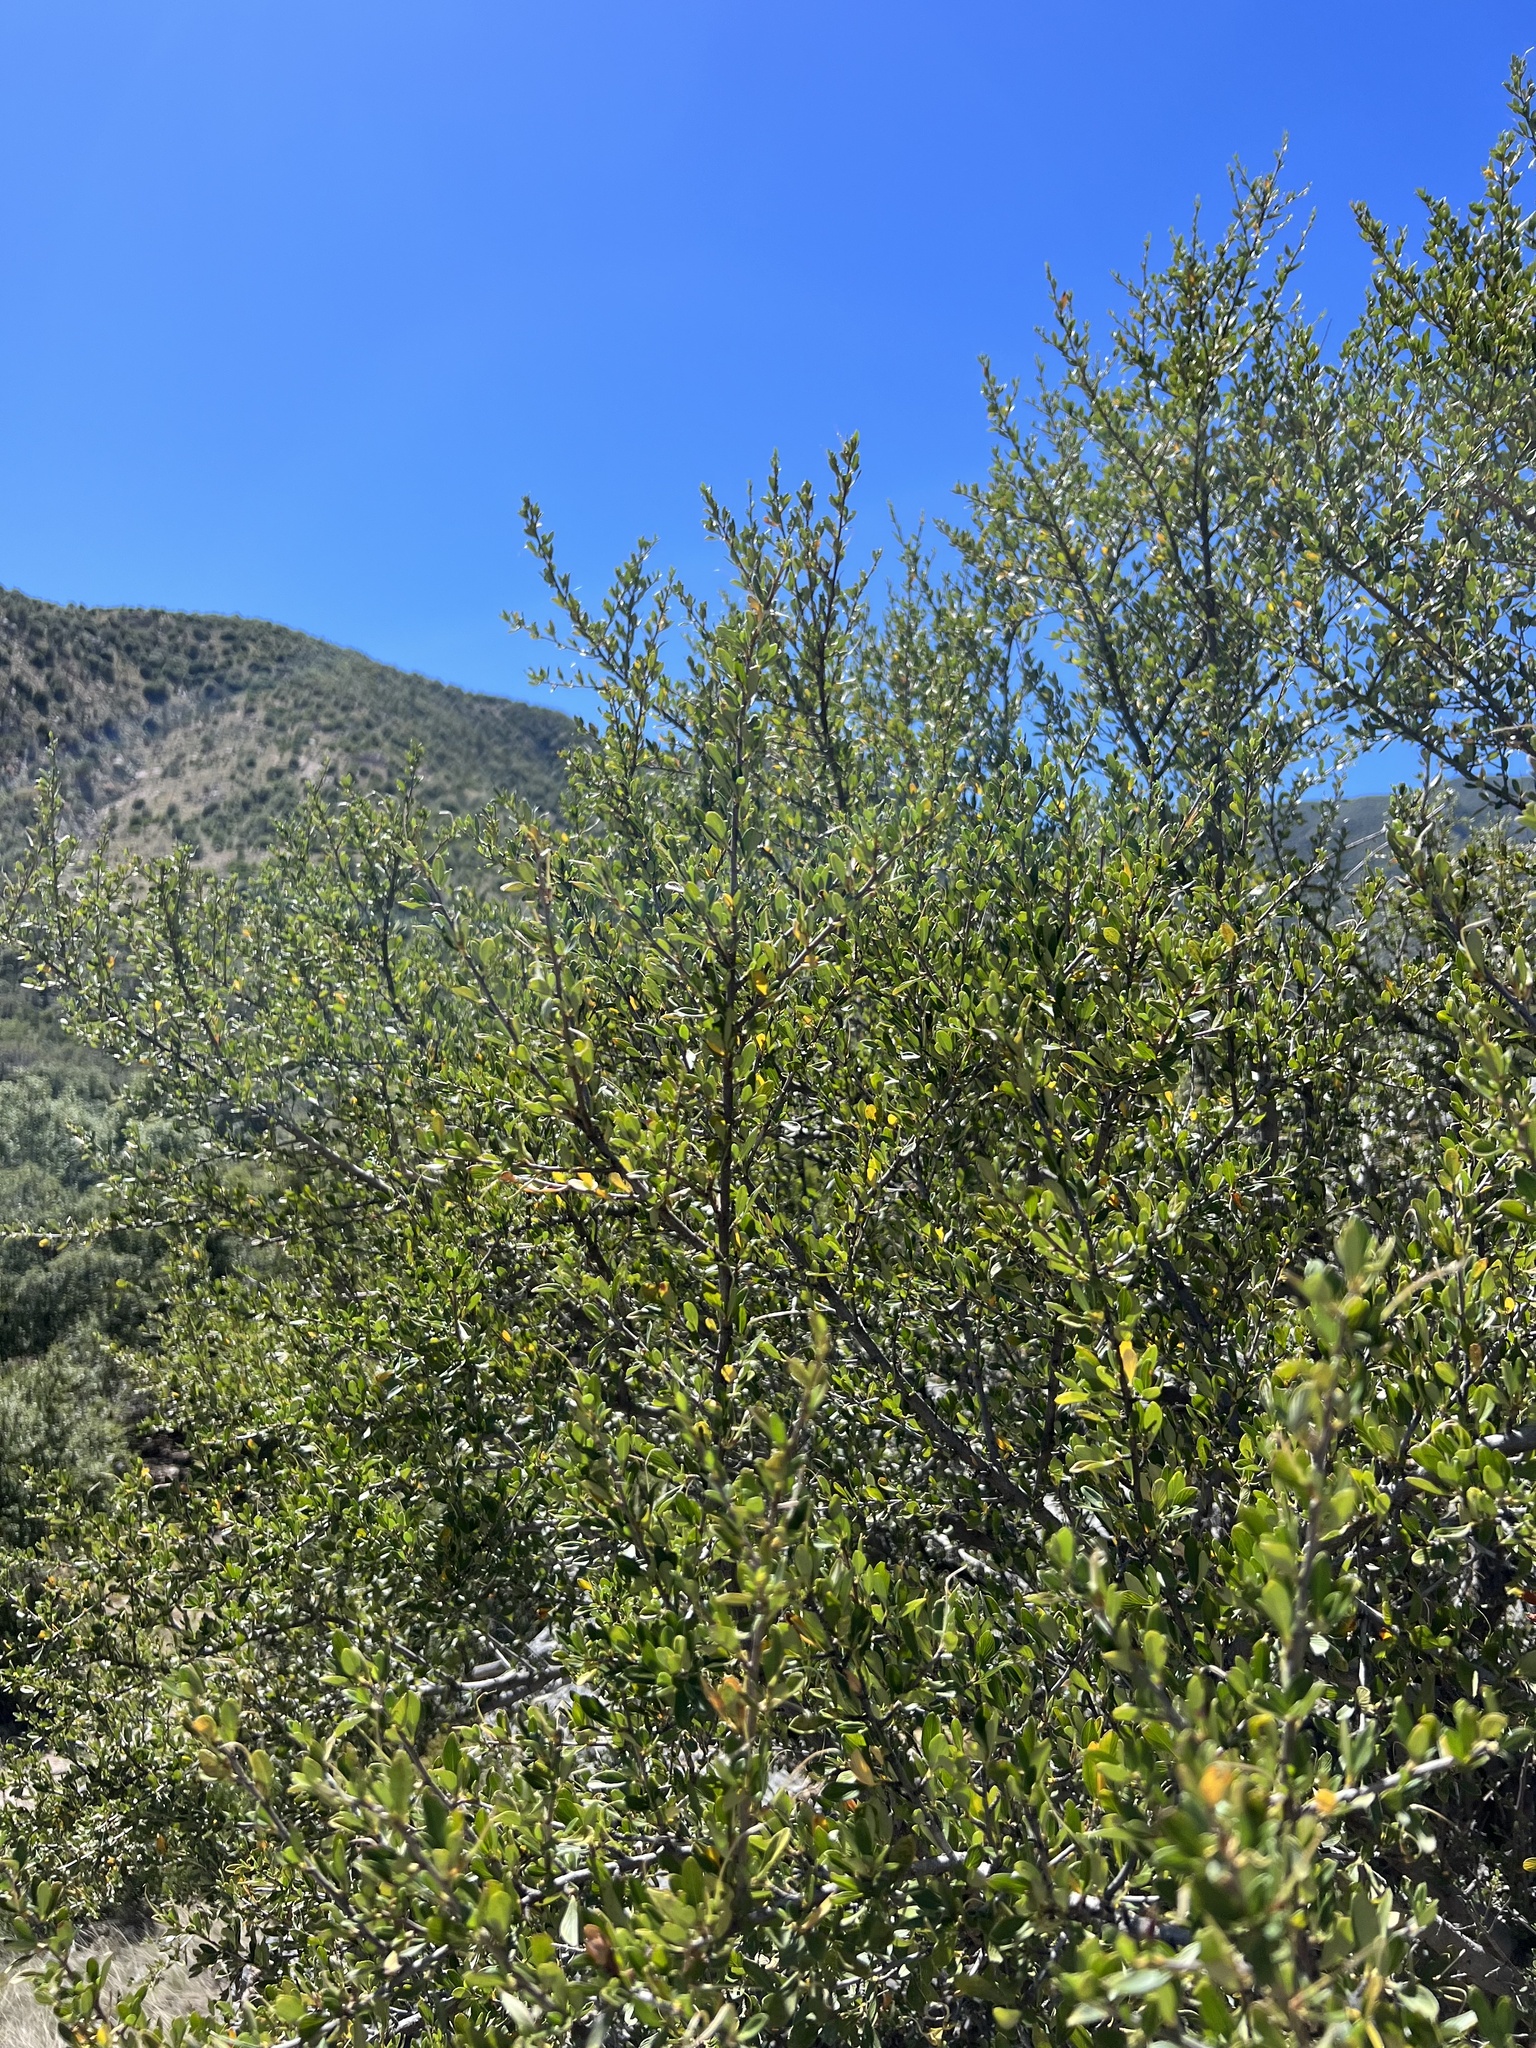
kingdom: Plantae
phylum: Tracheophyta
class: Magnoliopsida
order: Rosales
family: Rosaceae
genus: Cercocarpus
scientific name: Cercocarpus breviflorus
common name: Wright's mountain-mahogany
